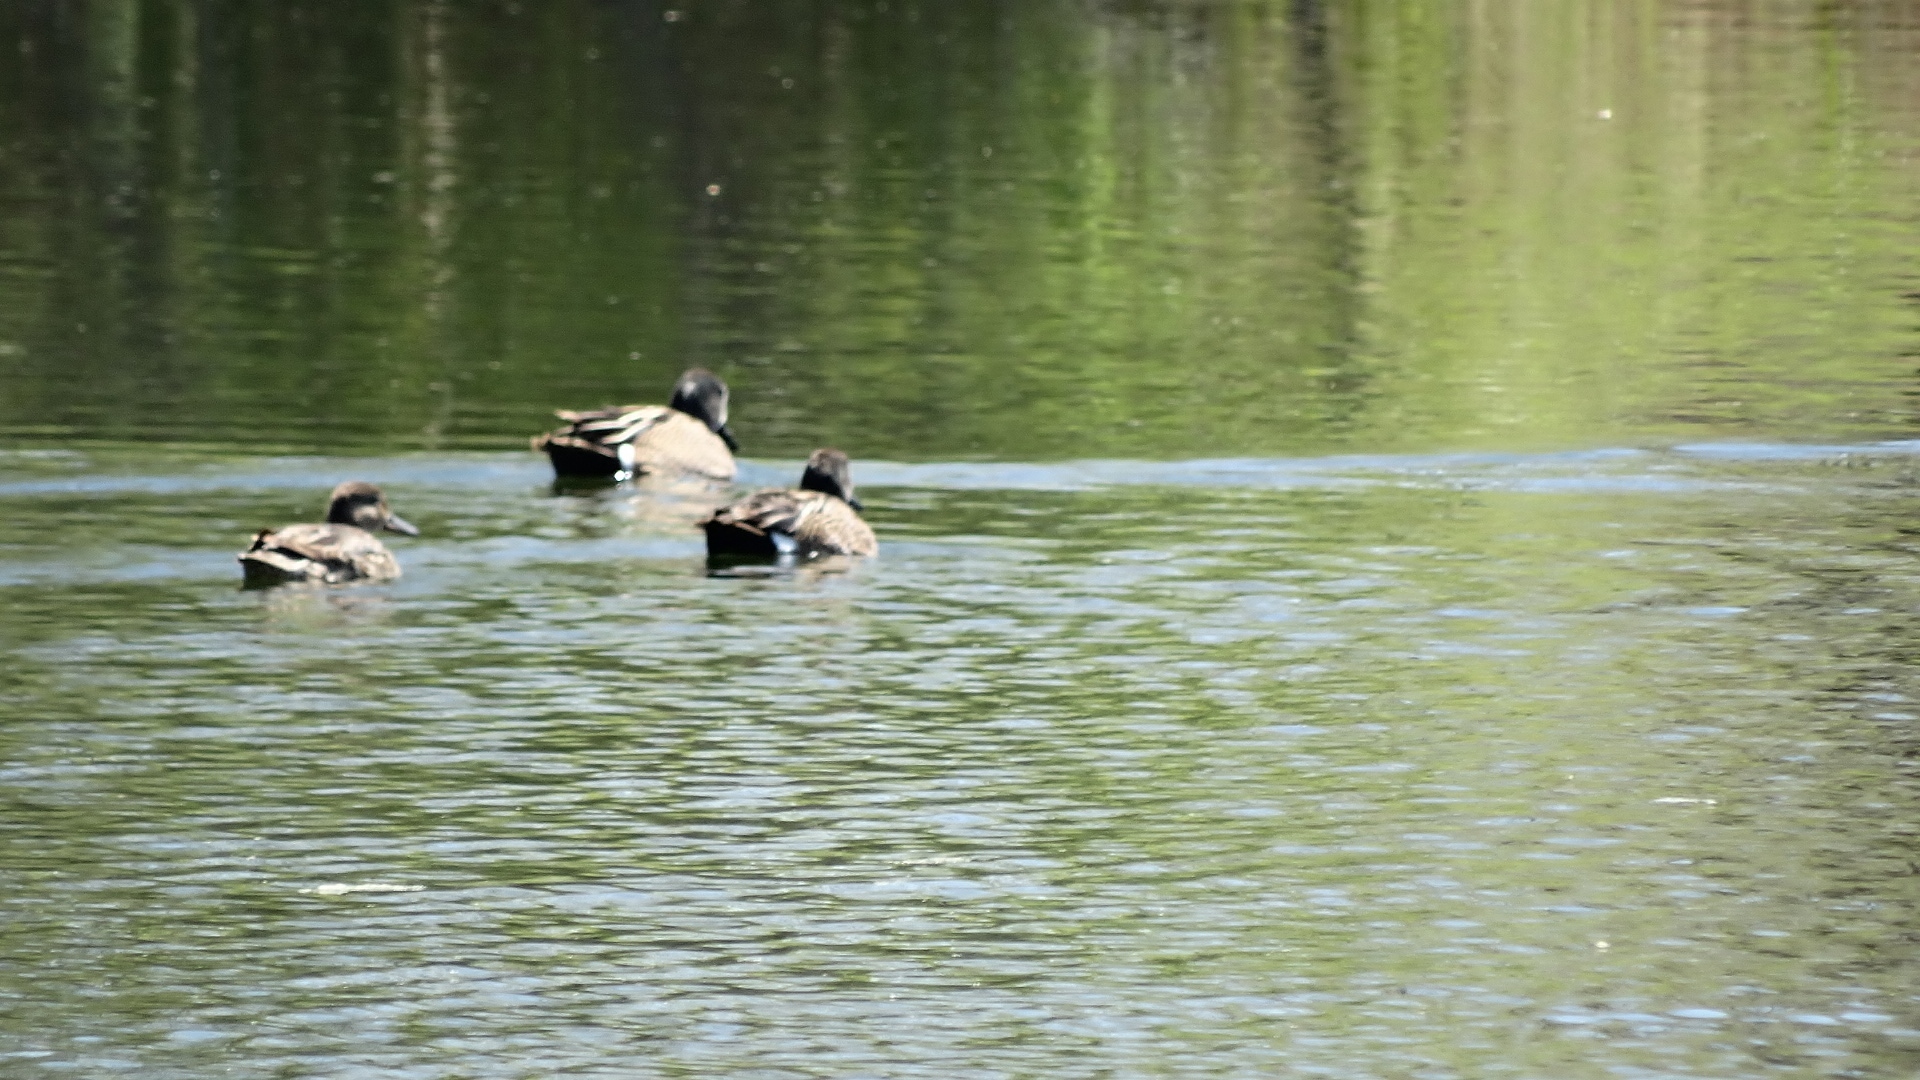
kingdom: Animalia
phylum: Chordata
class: Aves
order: Anseriformes
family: Anatidae
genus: Spatula
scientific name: Spatula discors
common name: Blue-winged teal
